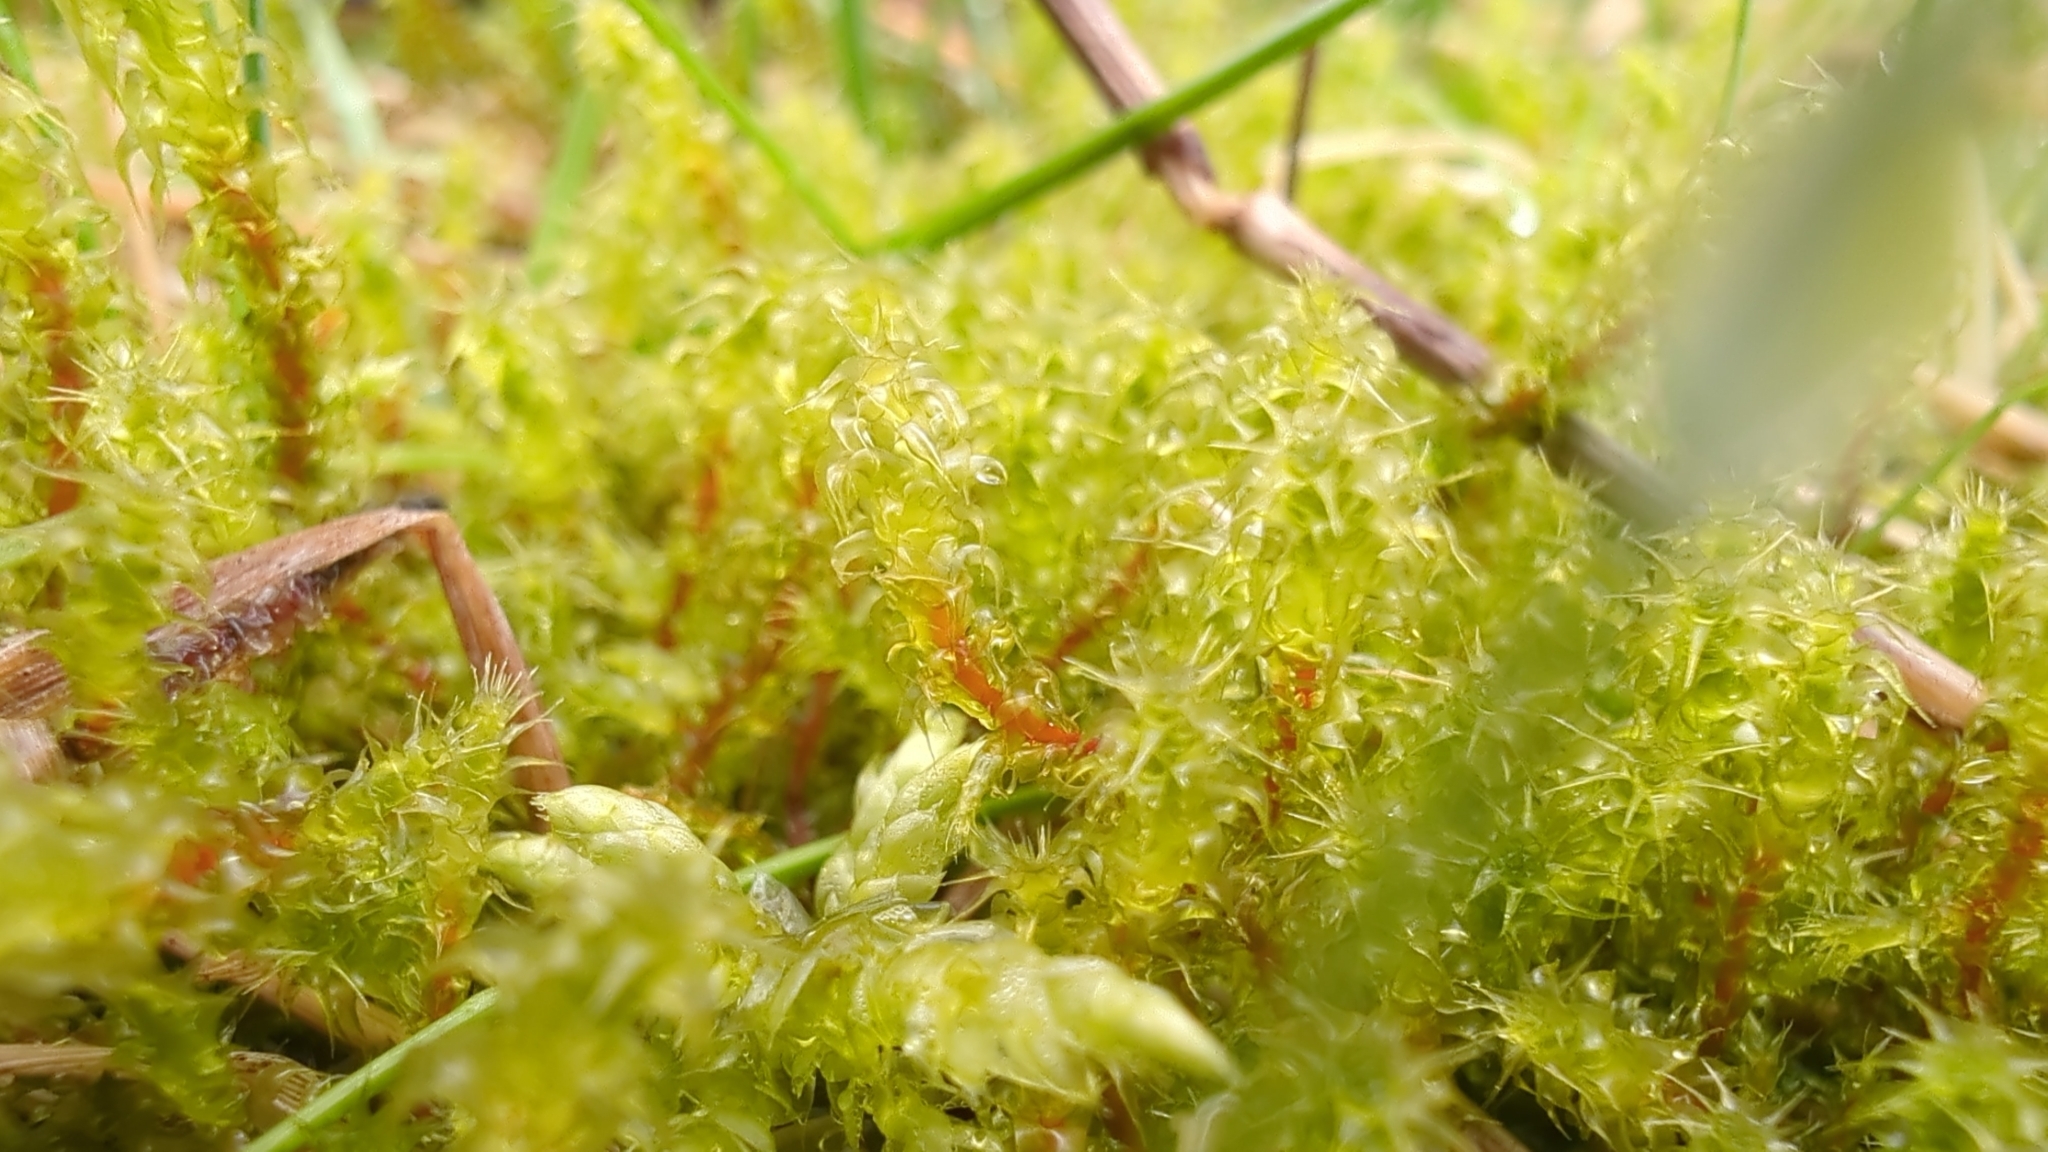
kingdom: Plantae
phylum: Bryophyta
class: Bryopsida
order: Hypnales
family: Hylocomiaceae
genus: Rhytidiadelphus
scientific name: Rhytidiadelphus squarrosus
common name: Springy turf-moss
